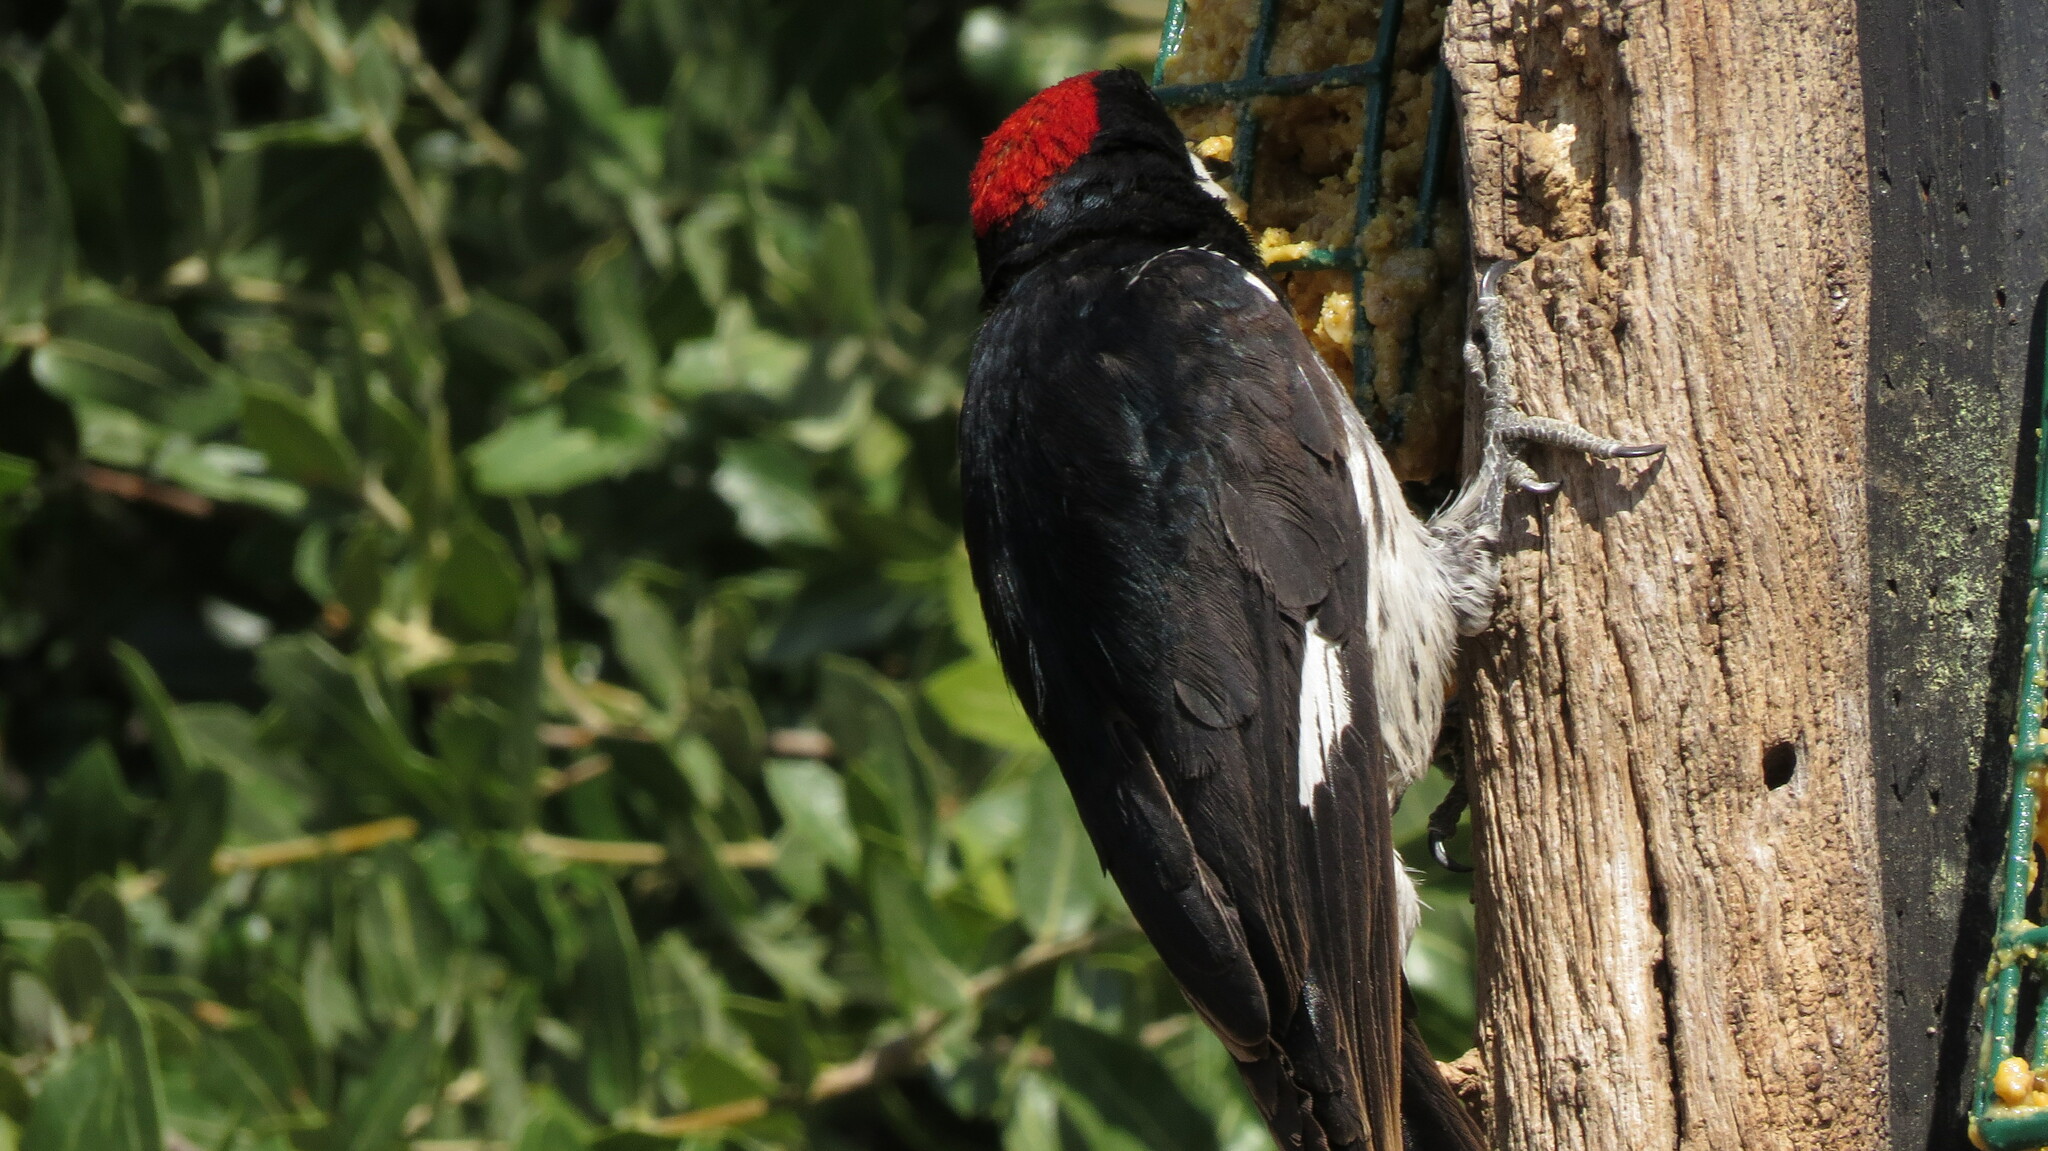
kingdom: Animalia
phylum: Chordata
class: Aves
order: Piciformes
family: Picidae
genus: Melanerpes
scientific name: Melanerpes formicivorus
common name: Acorn woodpecker
